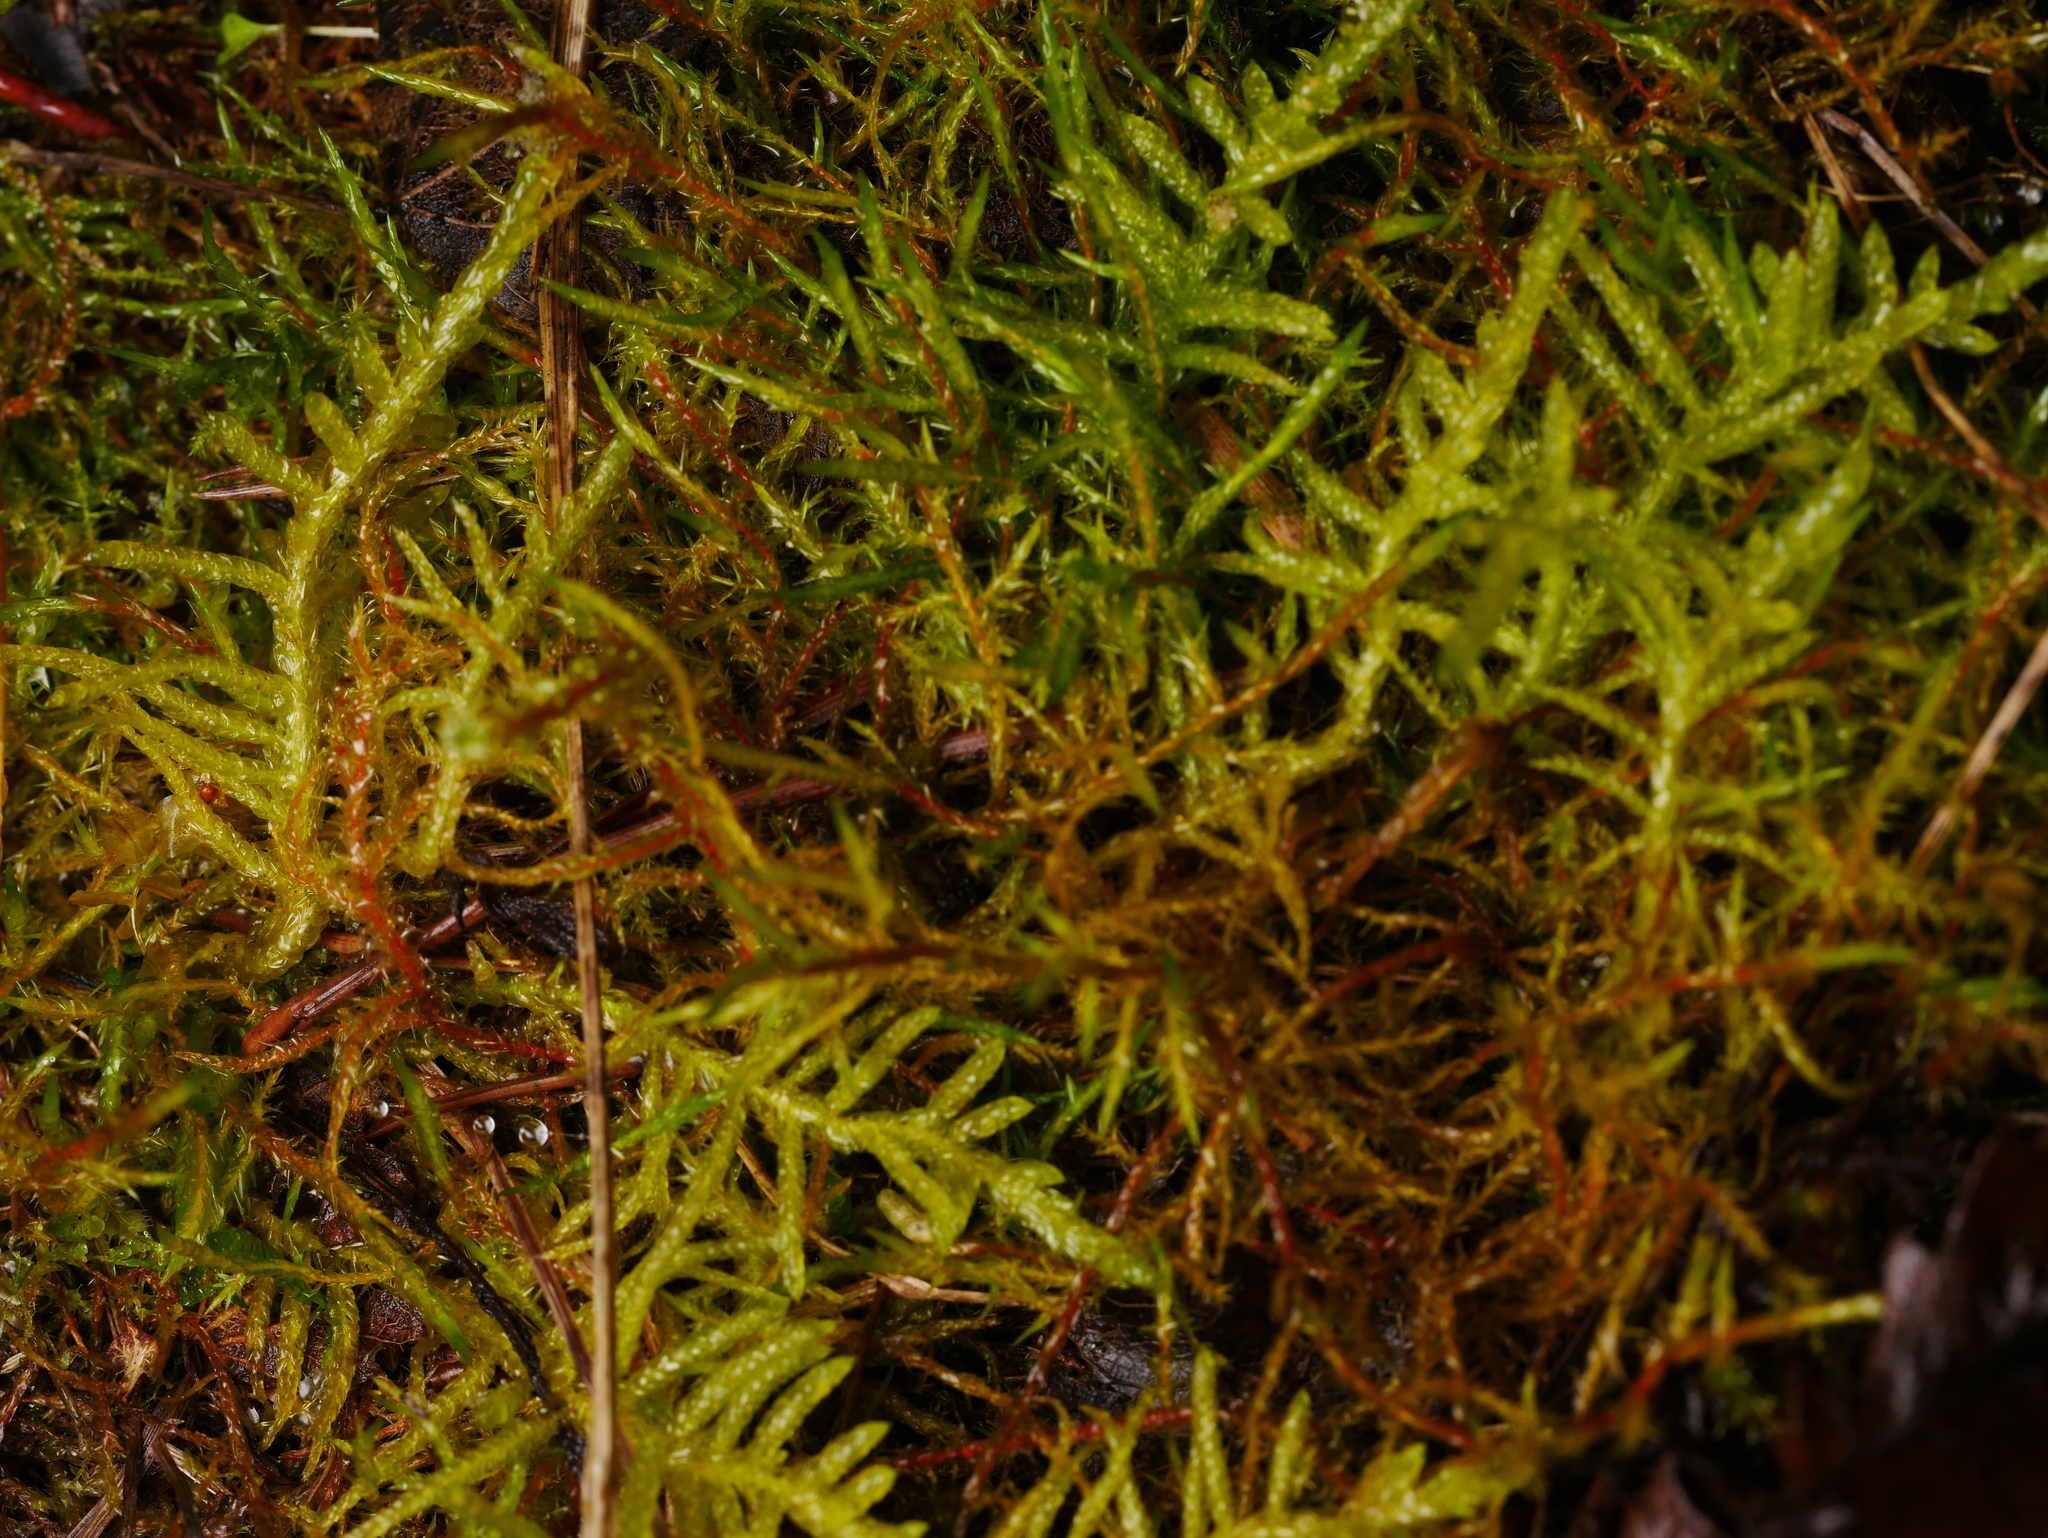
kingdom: Plantae
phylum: Bryophyta
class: Bryopsida
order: Hypnales
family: Brachytheciaceae
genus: Pseudoscleropodium
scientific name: Pseudoscleropodium purum
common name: Neat feather-moss
